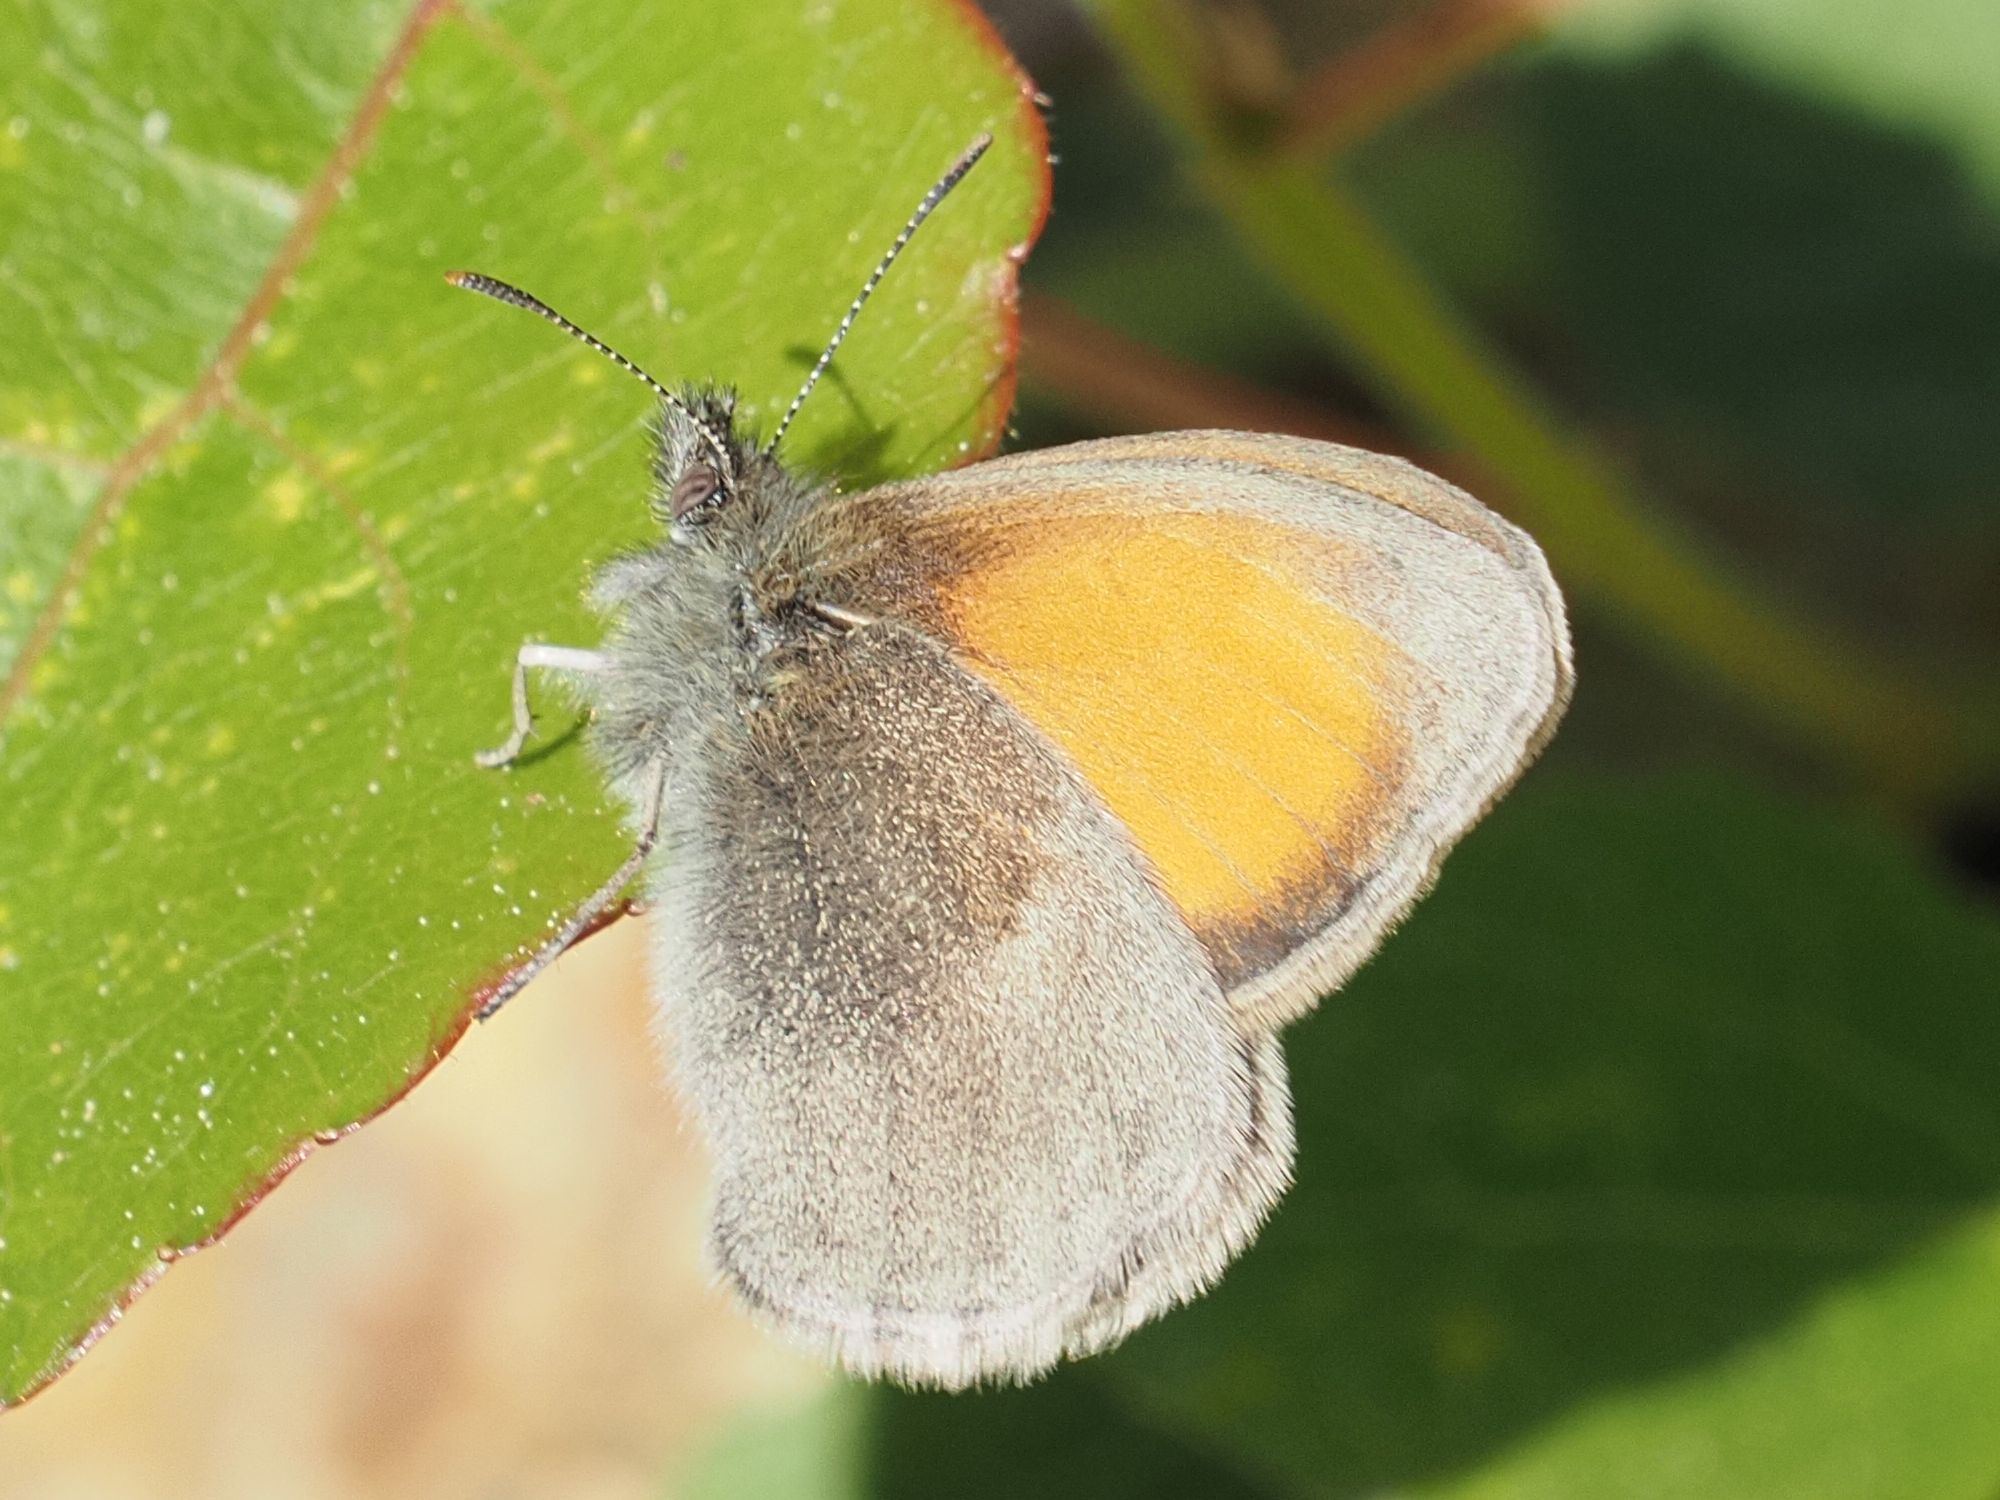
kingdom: Animalia
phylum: Arthropoda
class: Insecta
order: Lepidoptera
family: Nymphalidae
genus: Coenonympha
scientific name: Coenonympha pamphilus
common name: Small heath
